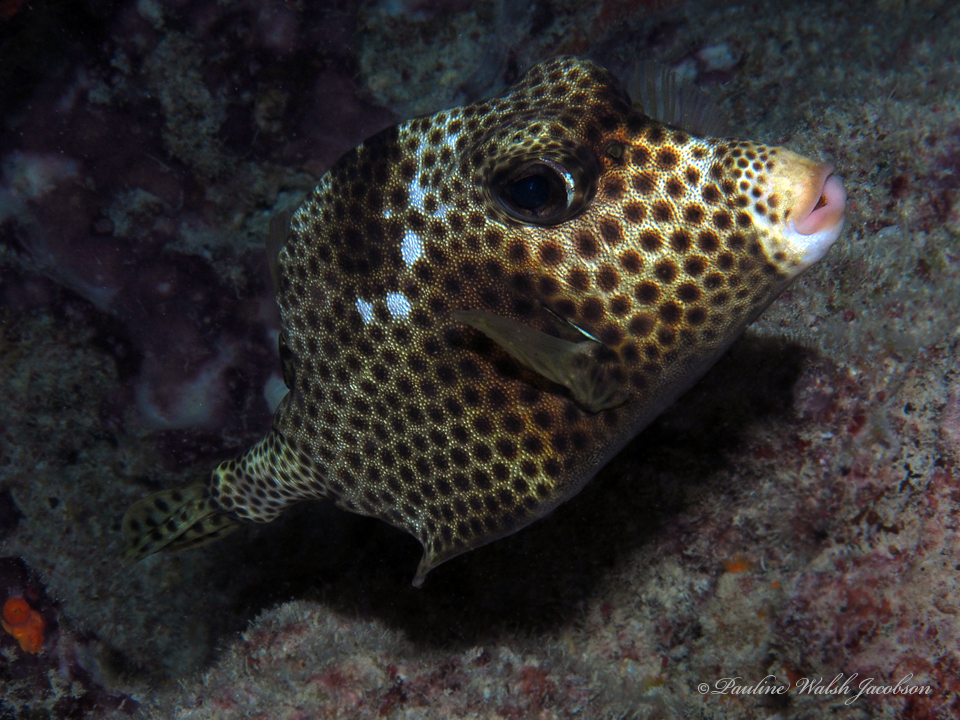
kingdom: Animalia
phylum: Chordata
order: Tetraodontiformes
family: Ostraciidae
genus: Lactophrys
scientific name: Lactophrys bicaudalis
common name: Spotted trunkfish
